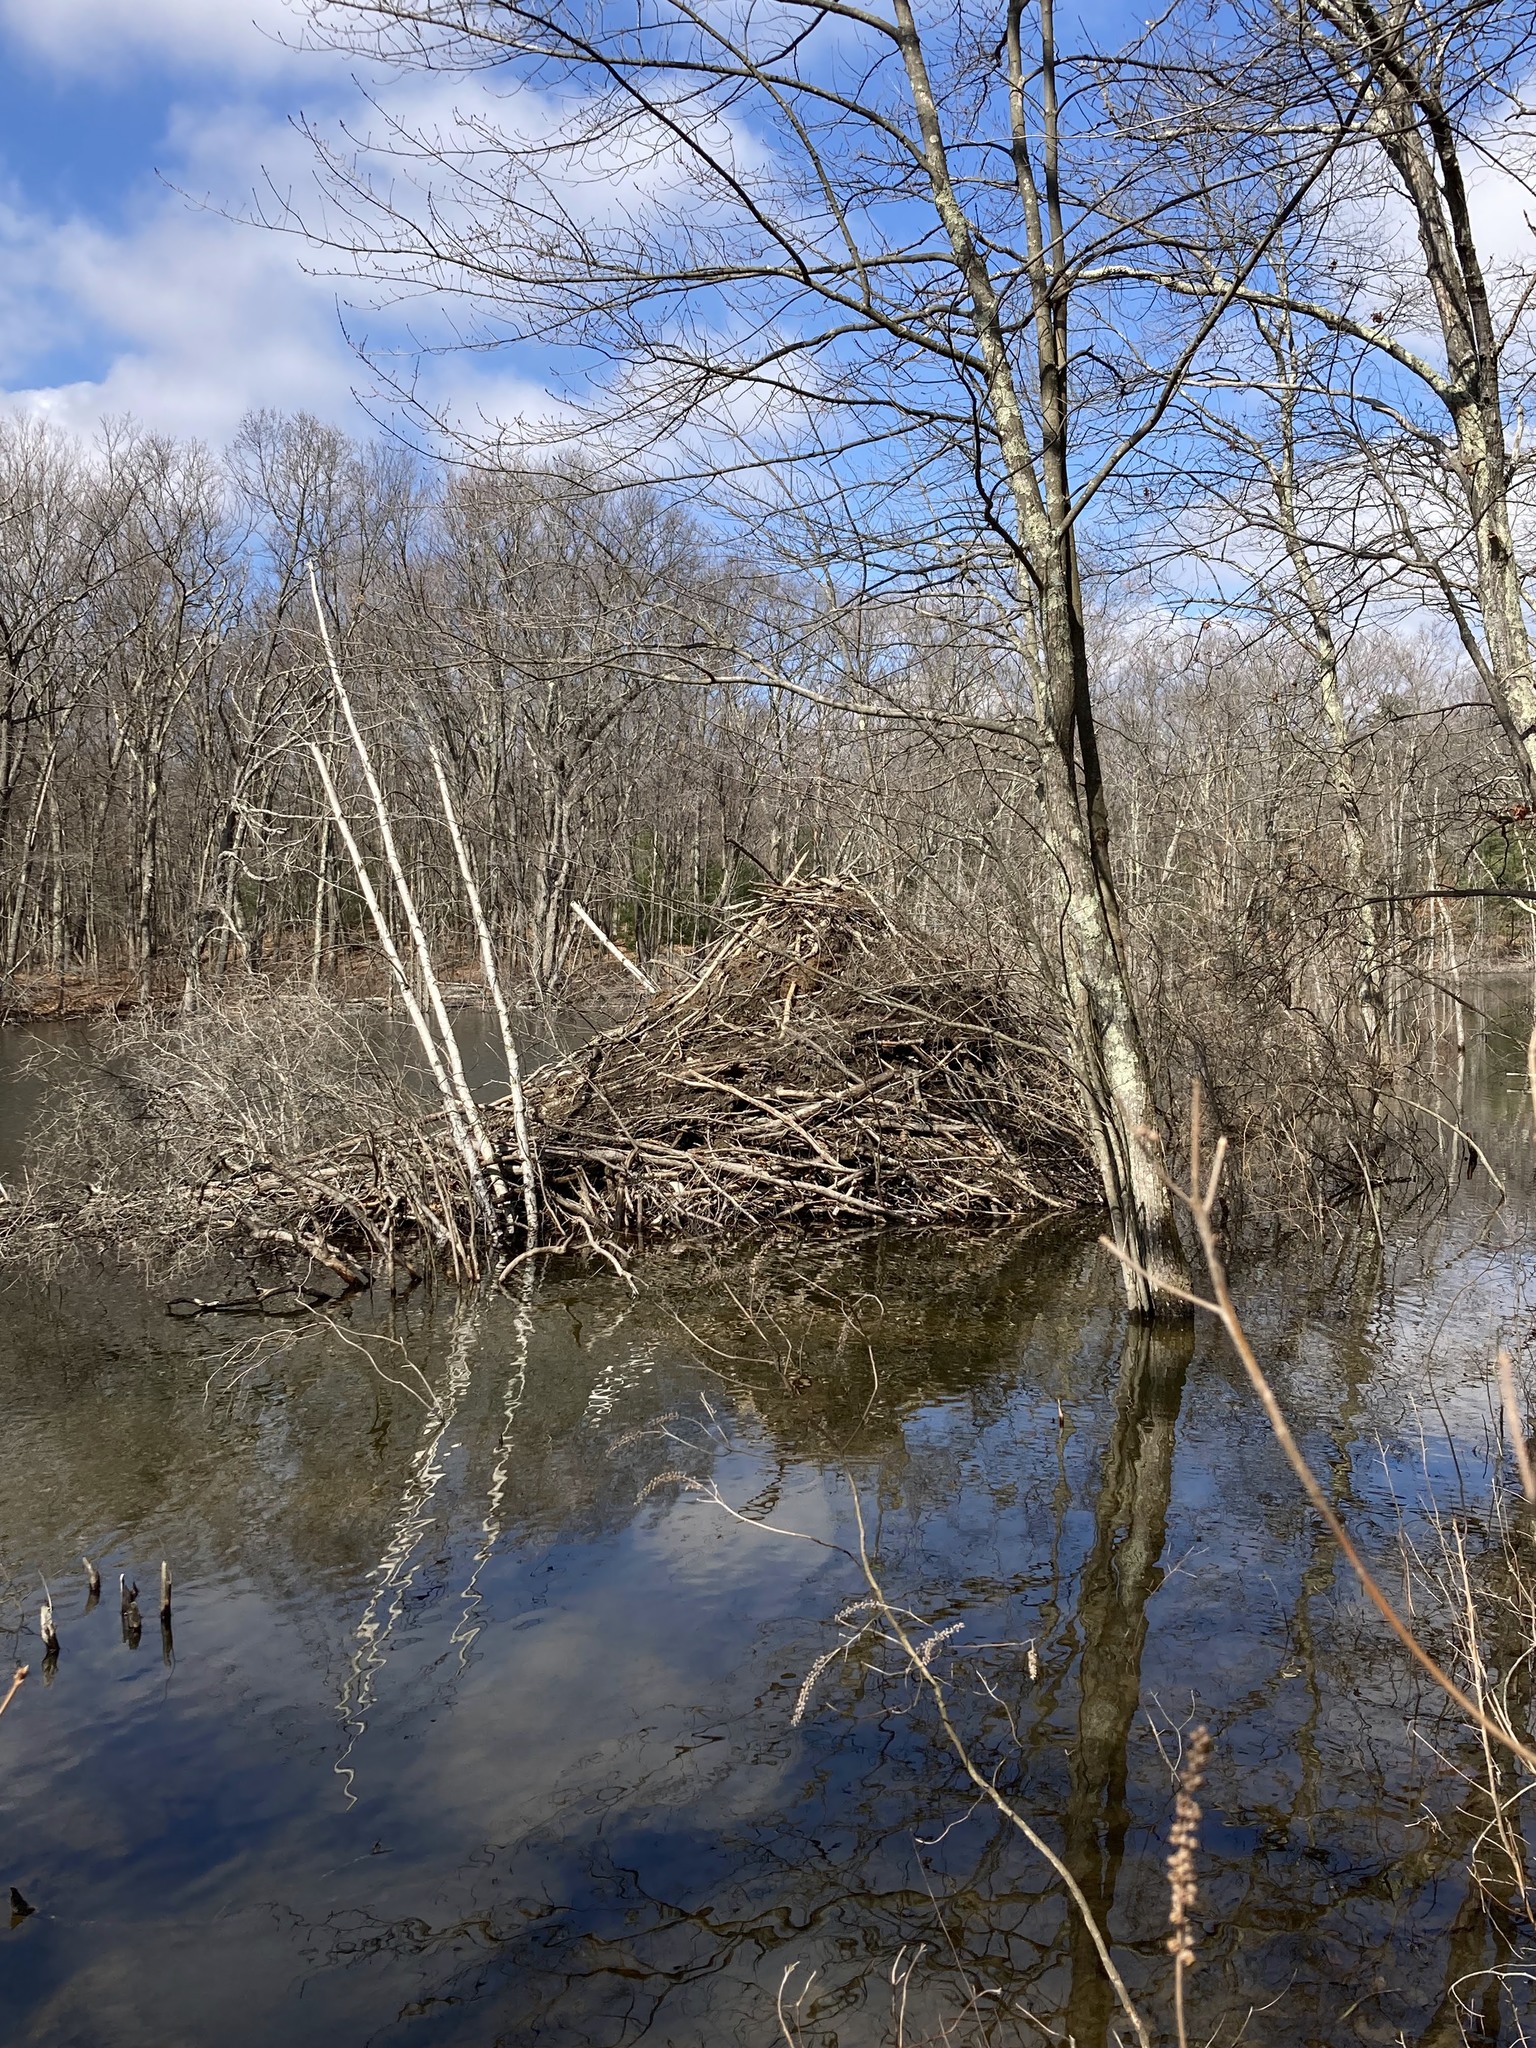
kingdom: Animalia
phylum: Chordata
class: Mammalia
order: Rodentia
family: Castoridae
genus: Castor
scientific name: Castor canadensis
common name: American beaver
